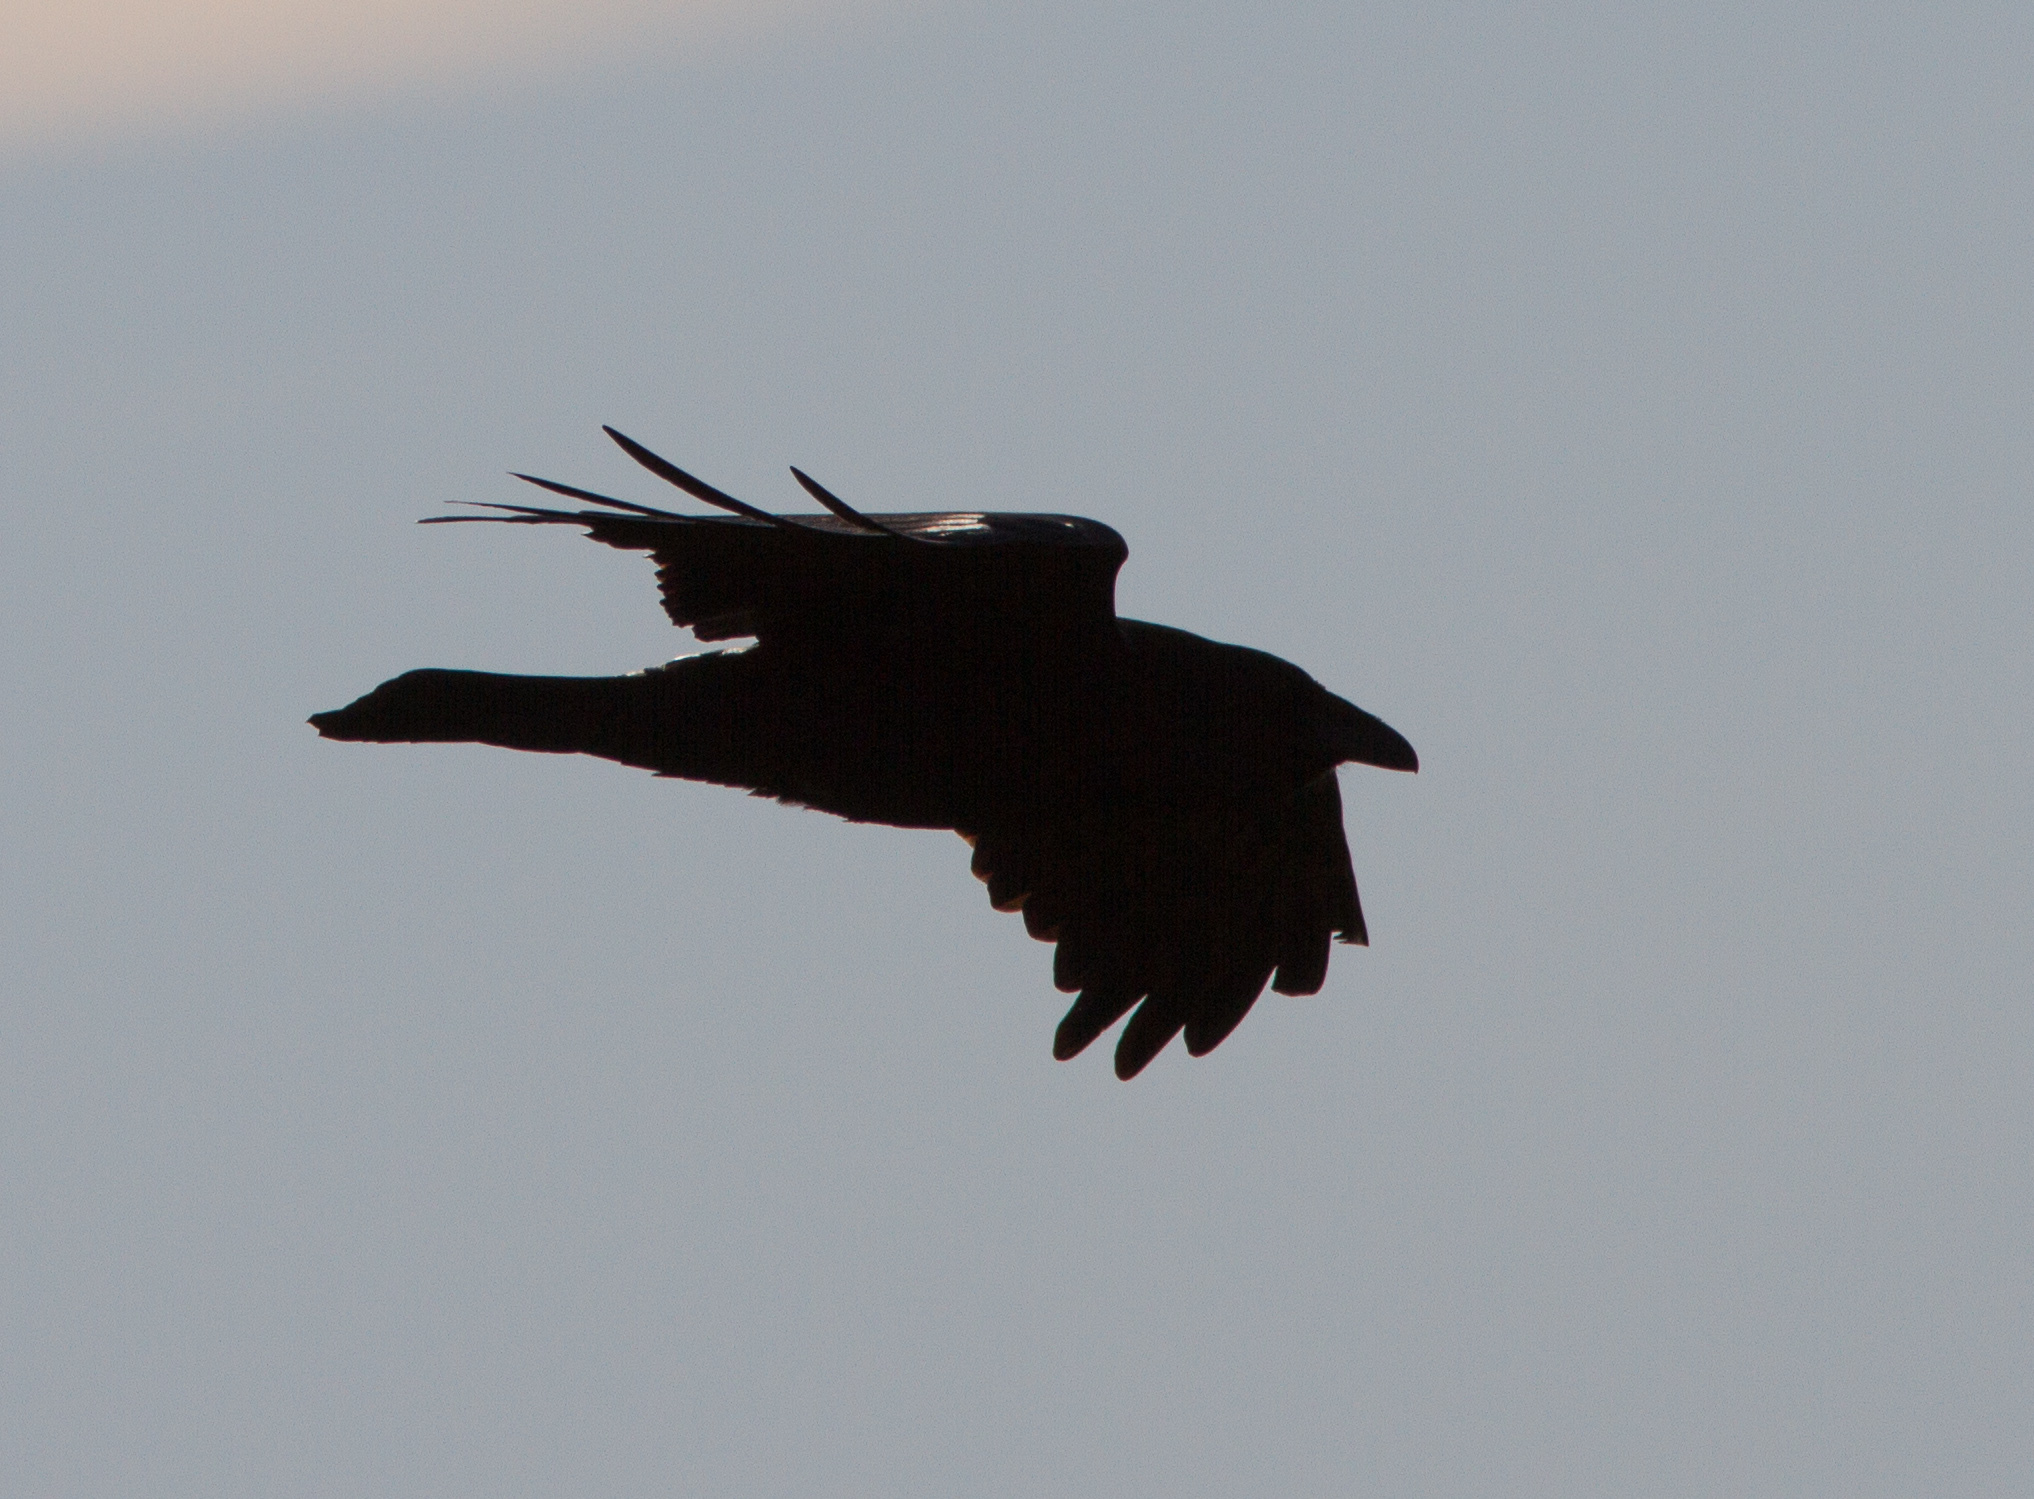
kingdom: Animalia
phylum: Chordata
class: Aves
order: Passeriformes
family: Corvidae
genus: Corvus
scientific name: Corvus corax
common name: Common raven
